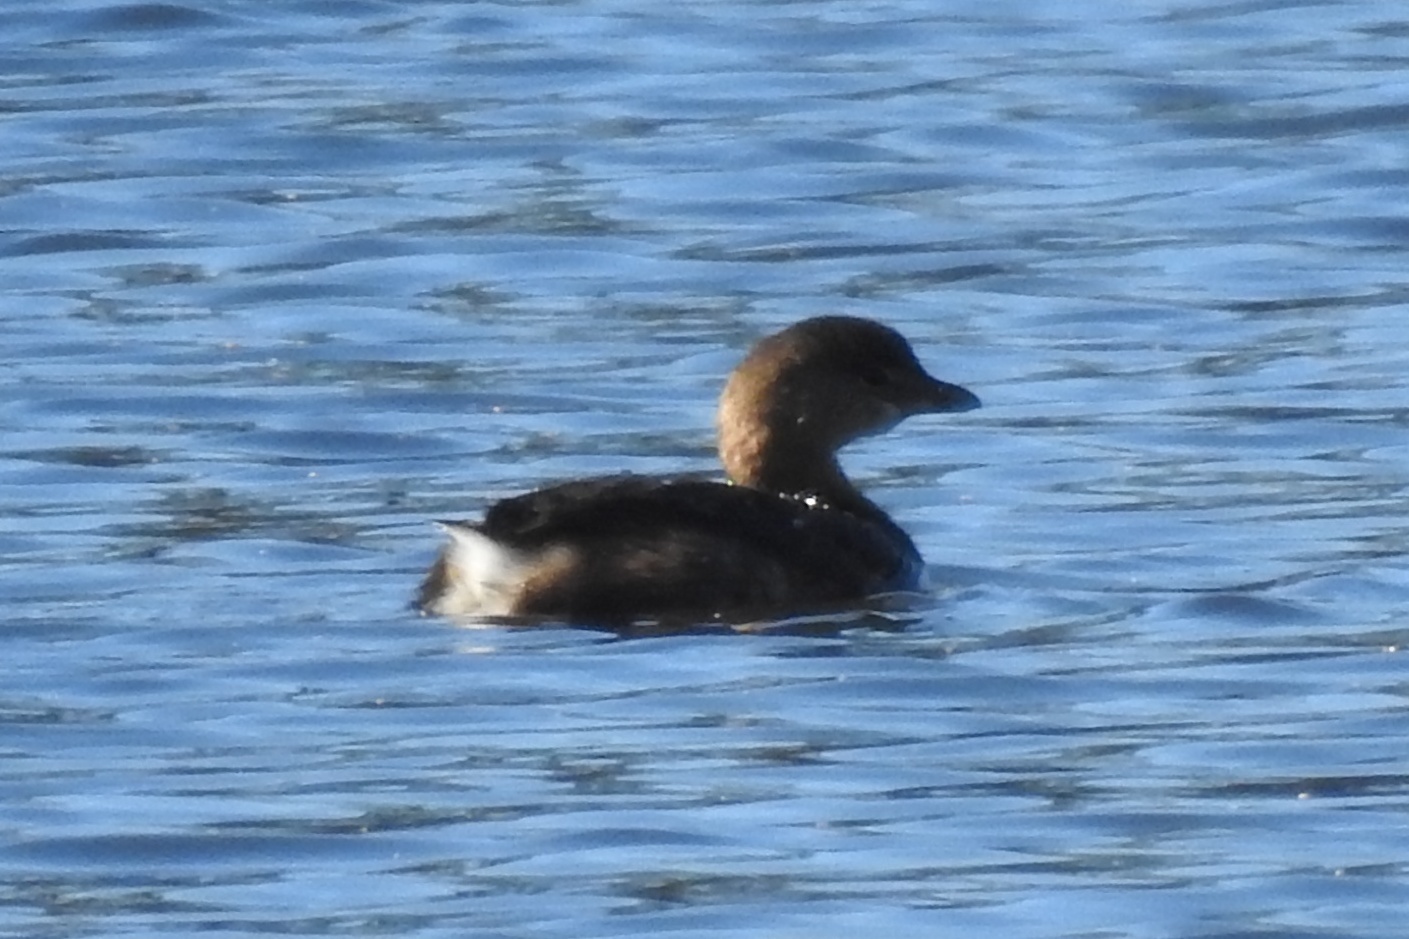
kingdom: Animalia
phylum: Chordata
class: Aves
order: Podicipediformes
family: Podicipedidae
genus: Podilymbus
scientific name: Podilymbus podiceps
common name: Pied-billed grebe
